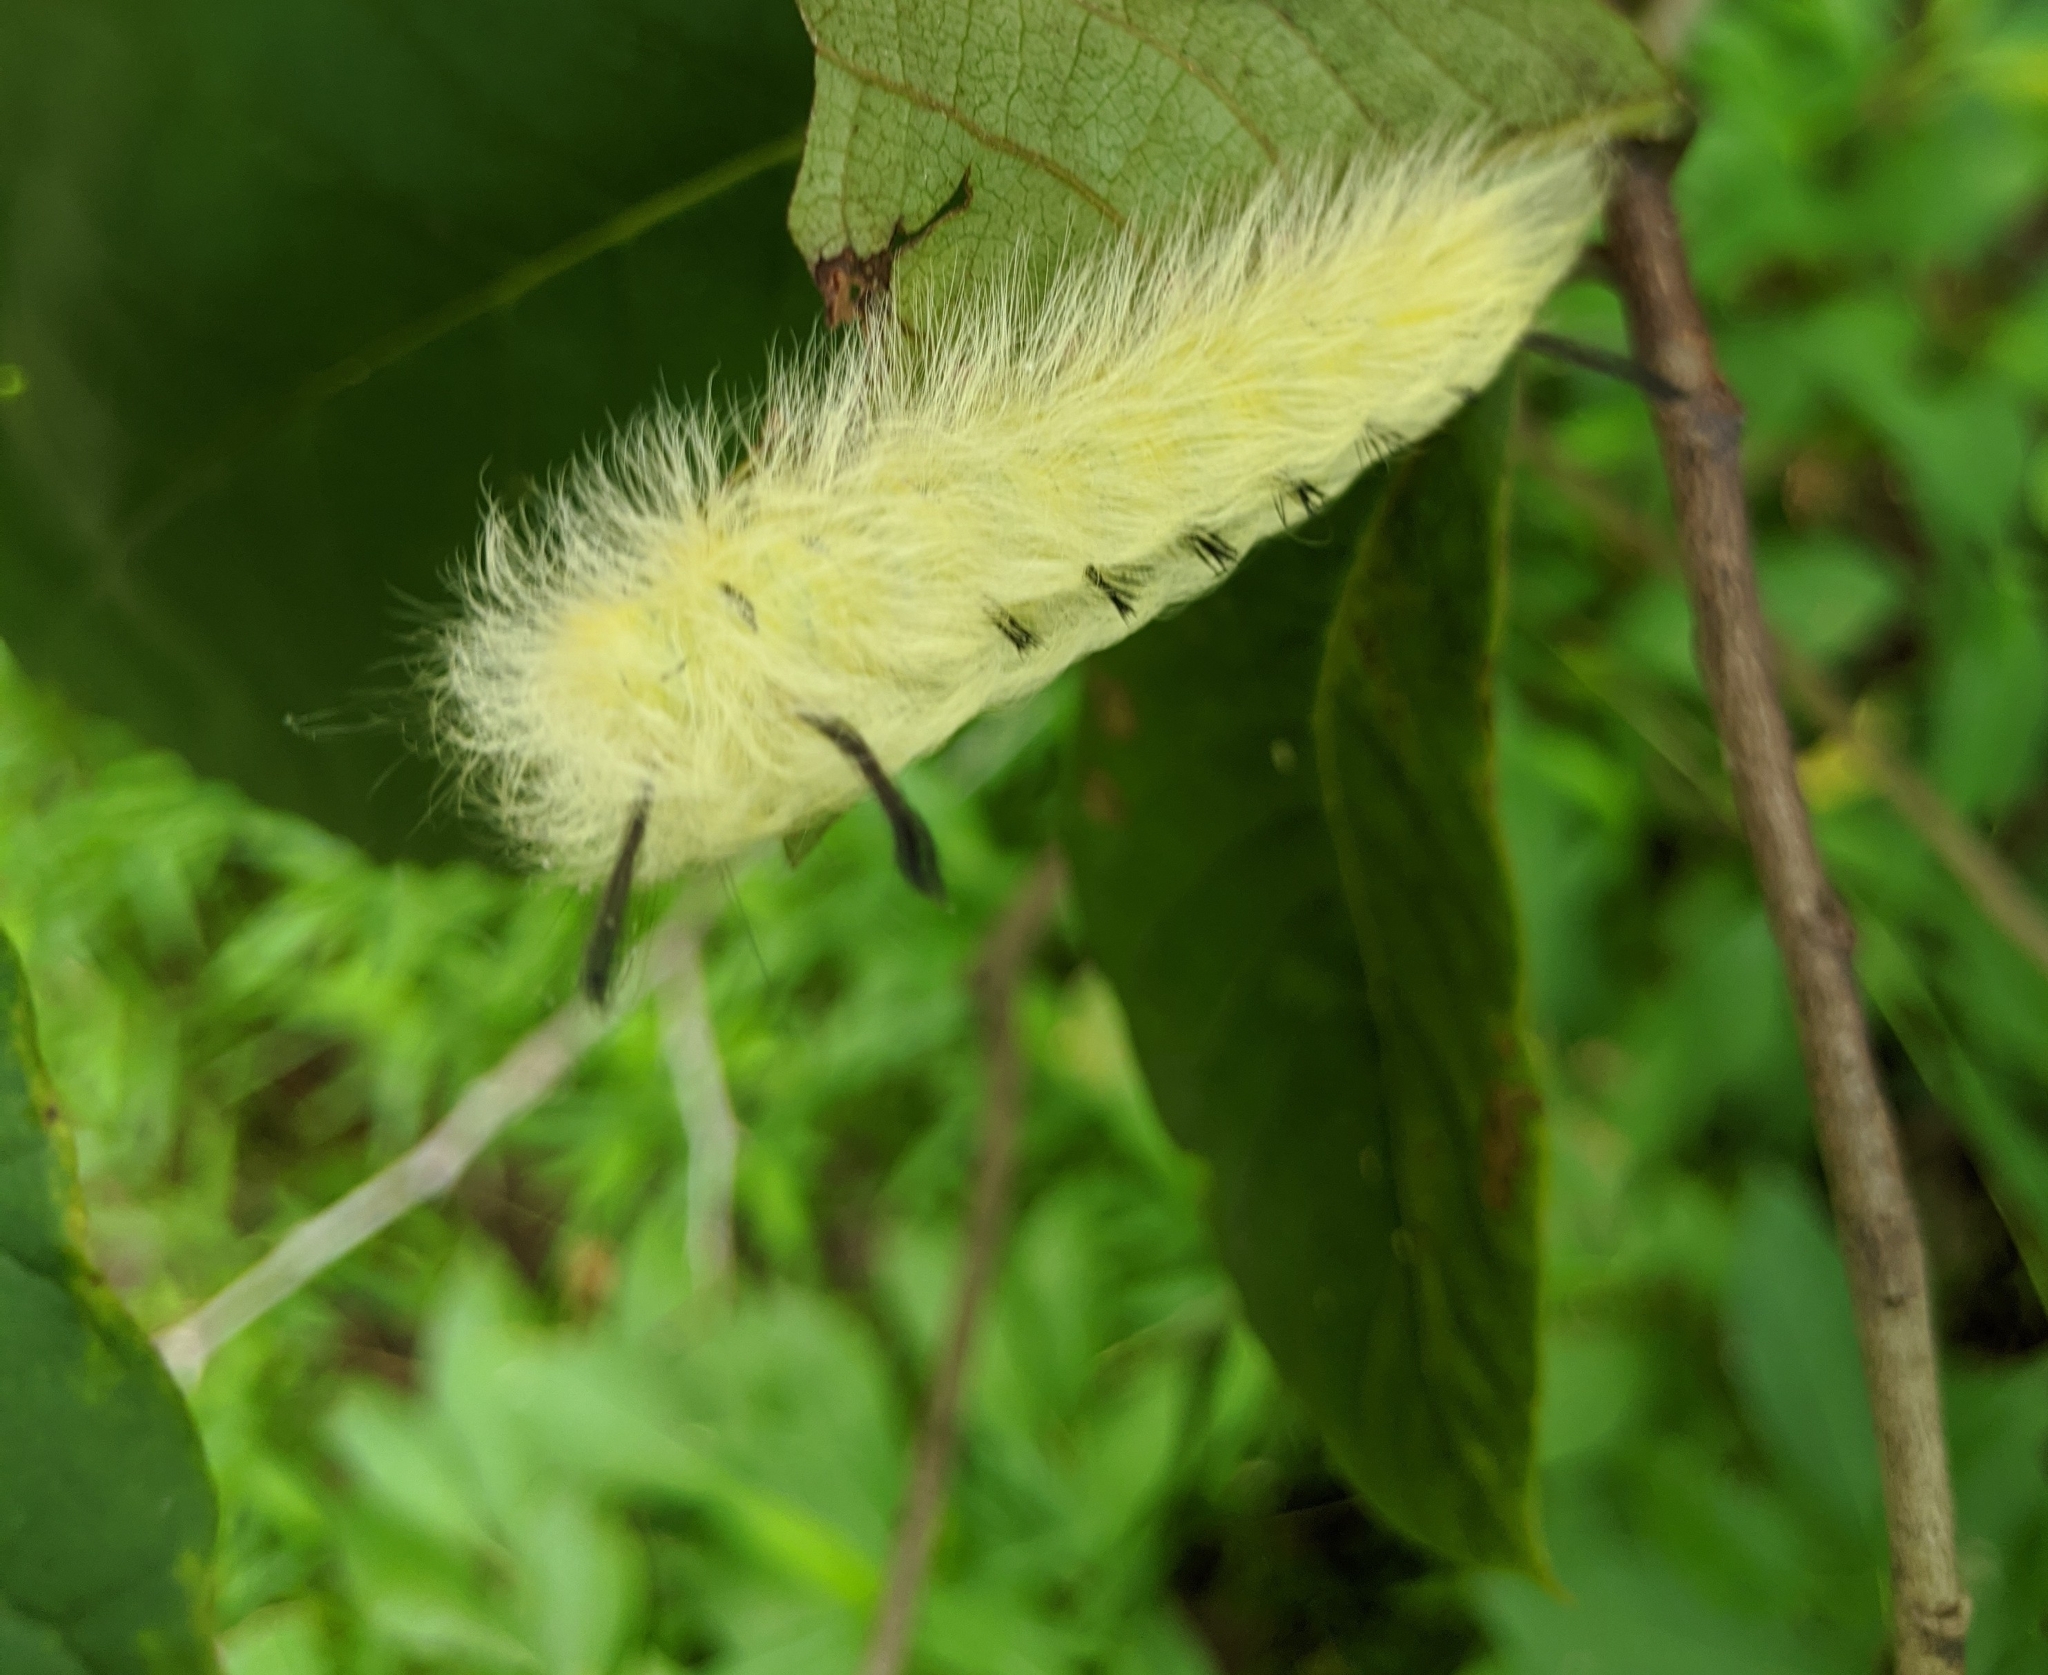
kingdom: Animalia
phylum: Arthropoda
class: Insecta
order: Lepidoptera
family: Apatelodidae
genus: Hygrochroa
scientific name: Hygrochroa Apatelodes torrefacta
